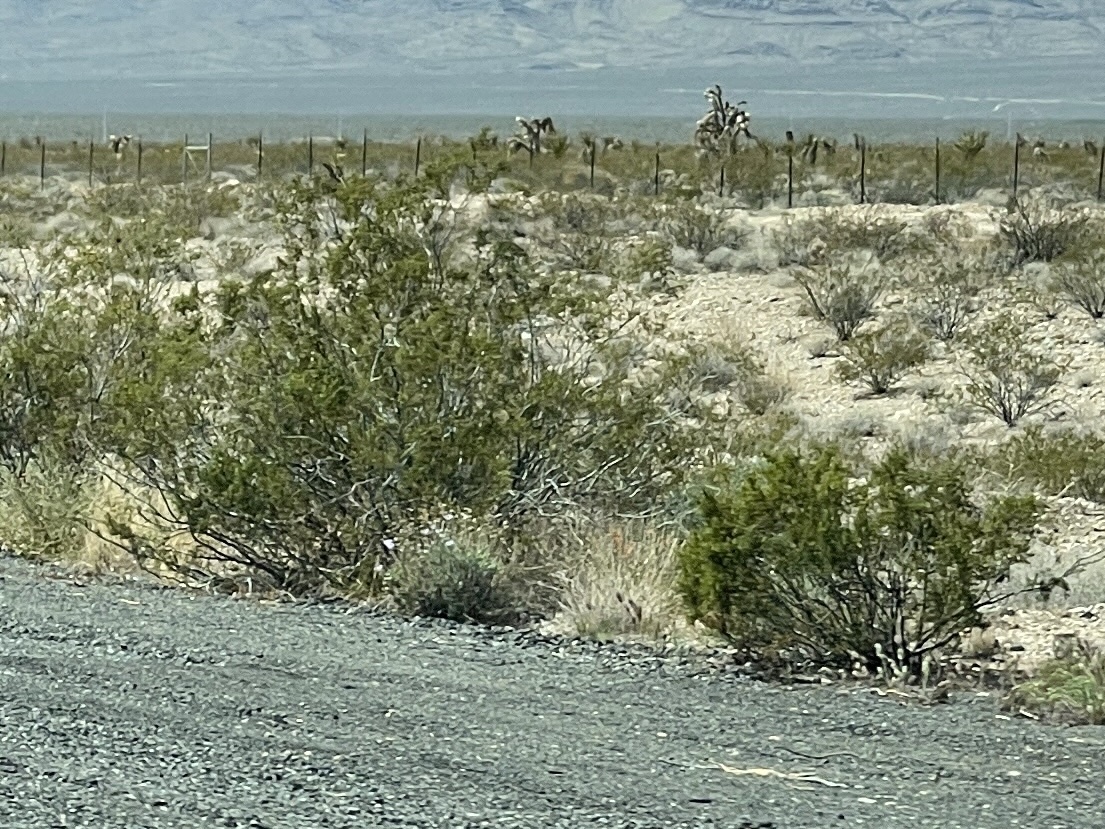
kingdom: Plantae
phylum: Tracheophyta
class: Magnoliopsida
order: Zygophyllales
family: Zygophyllaceae
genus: Larrea
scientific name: Larrea tridentata
